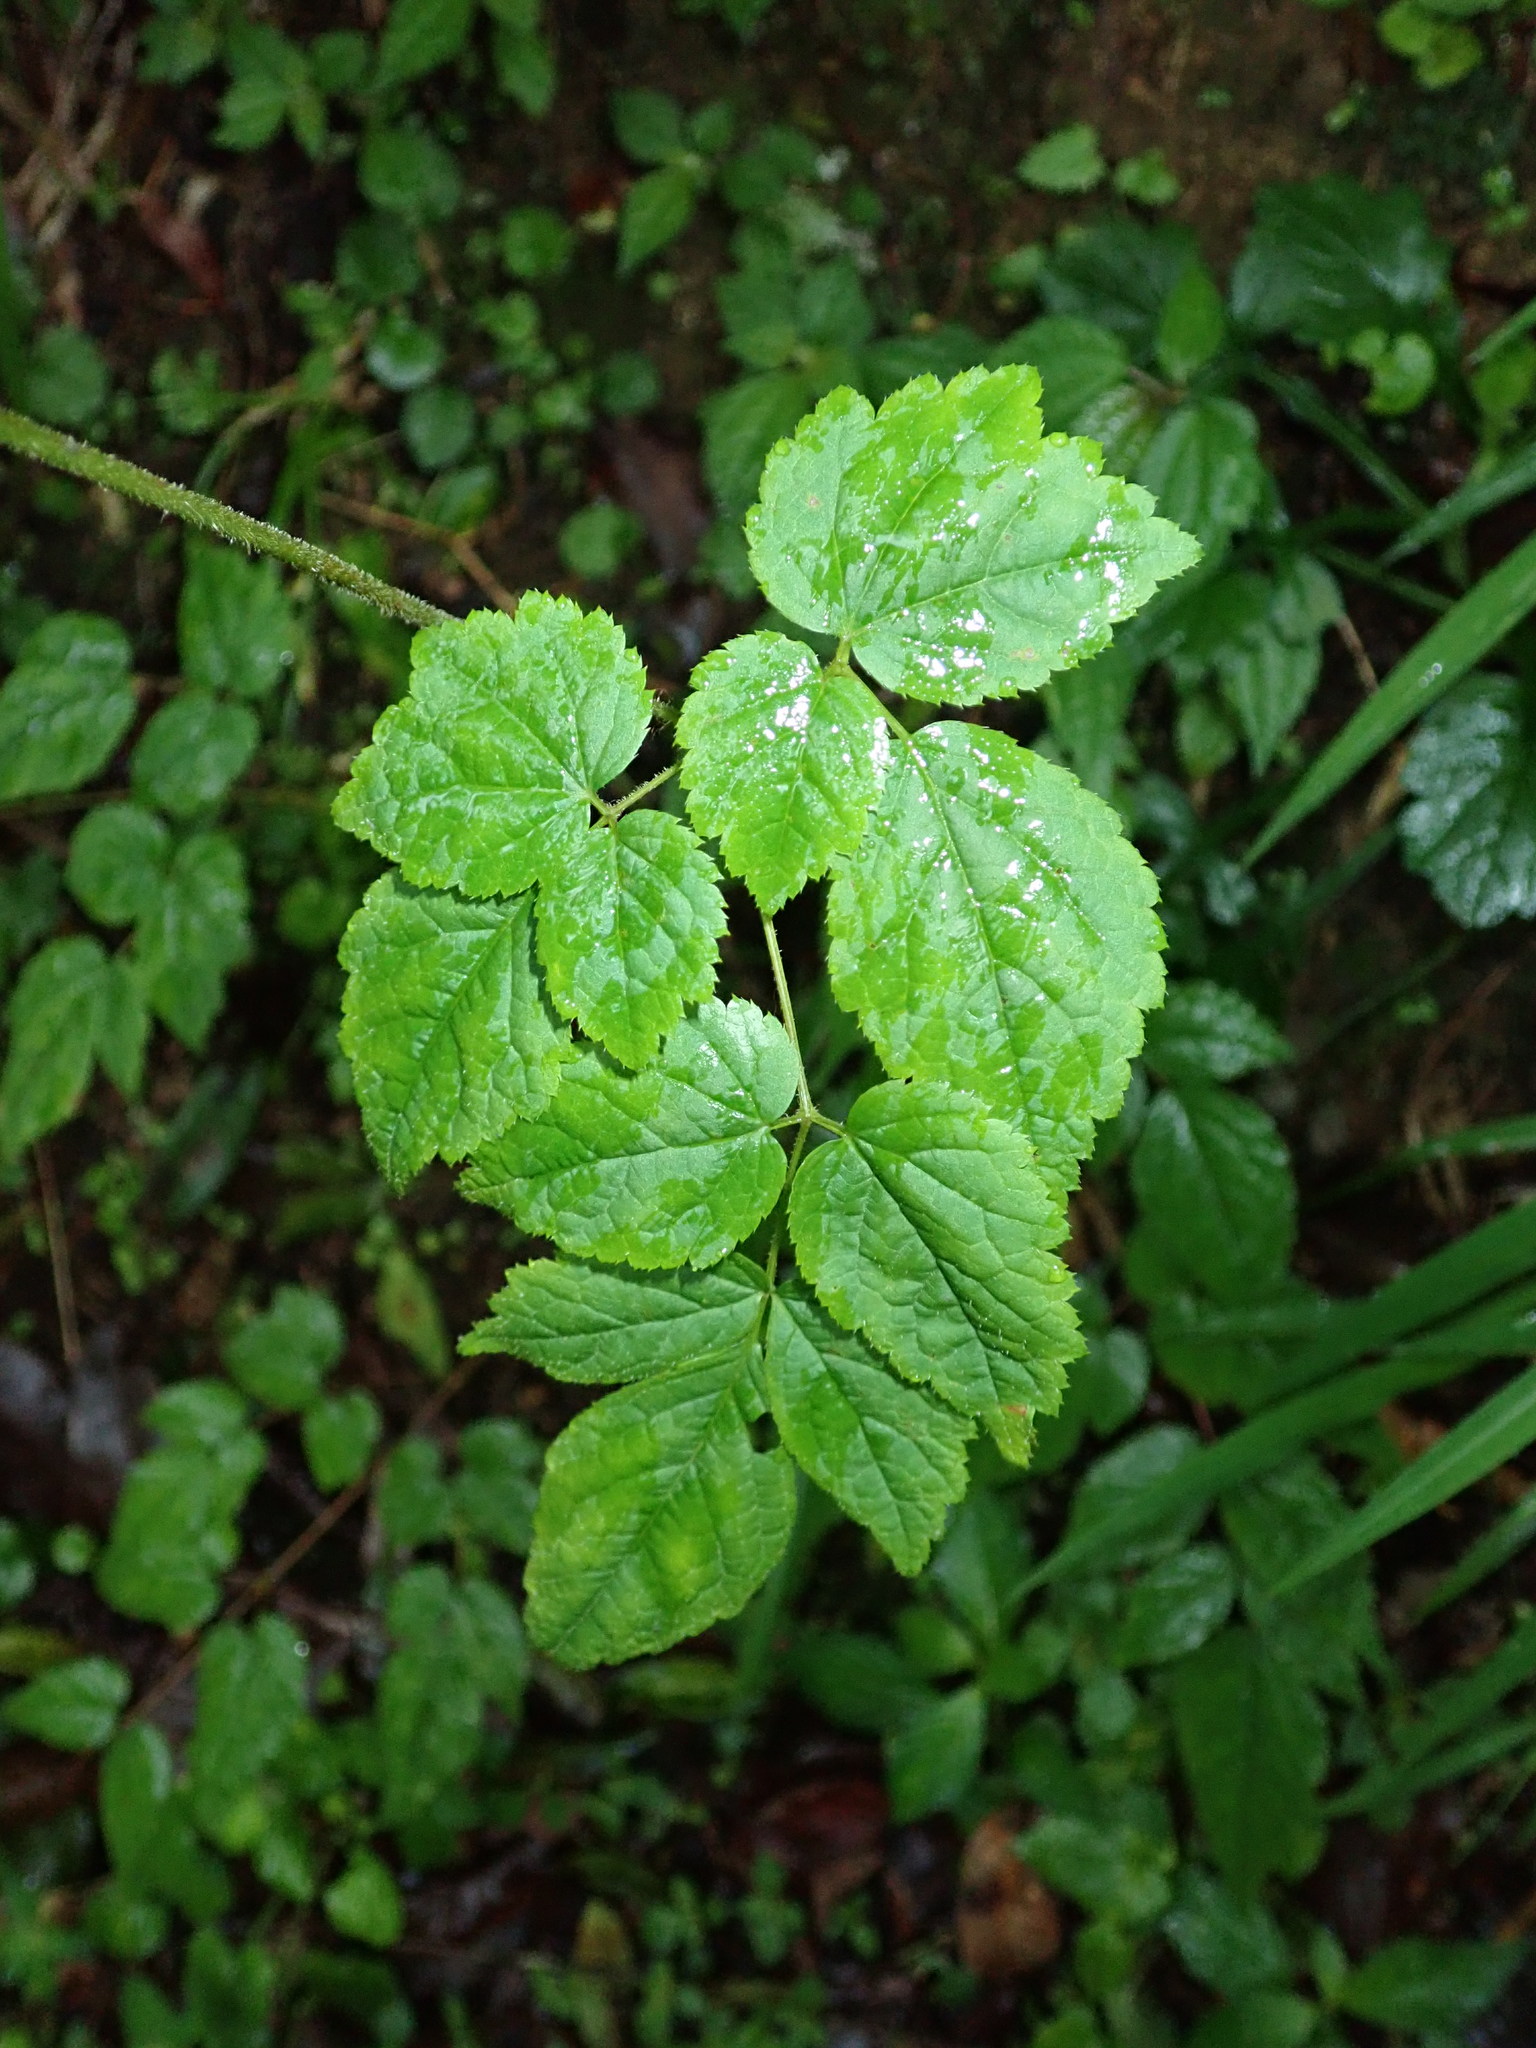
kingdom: Plantae
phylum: Tracheophyta
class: Magnoliopsida
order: Saxifragales
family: Saxifragaceae
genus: Astilbe
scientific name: Astilbe longicarpa
